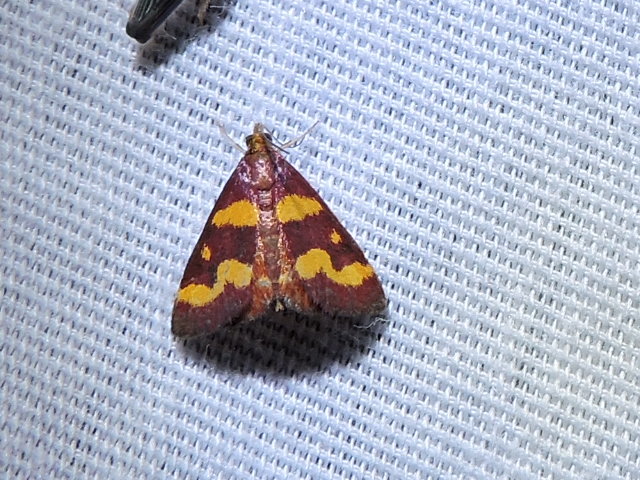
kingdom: Animalia
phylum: Arthropoda
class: Insecta
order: Lepidoptera
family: Crambidae
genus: Pyrausta
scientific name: Pyrausta tyralis
